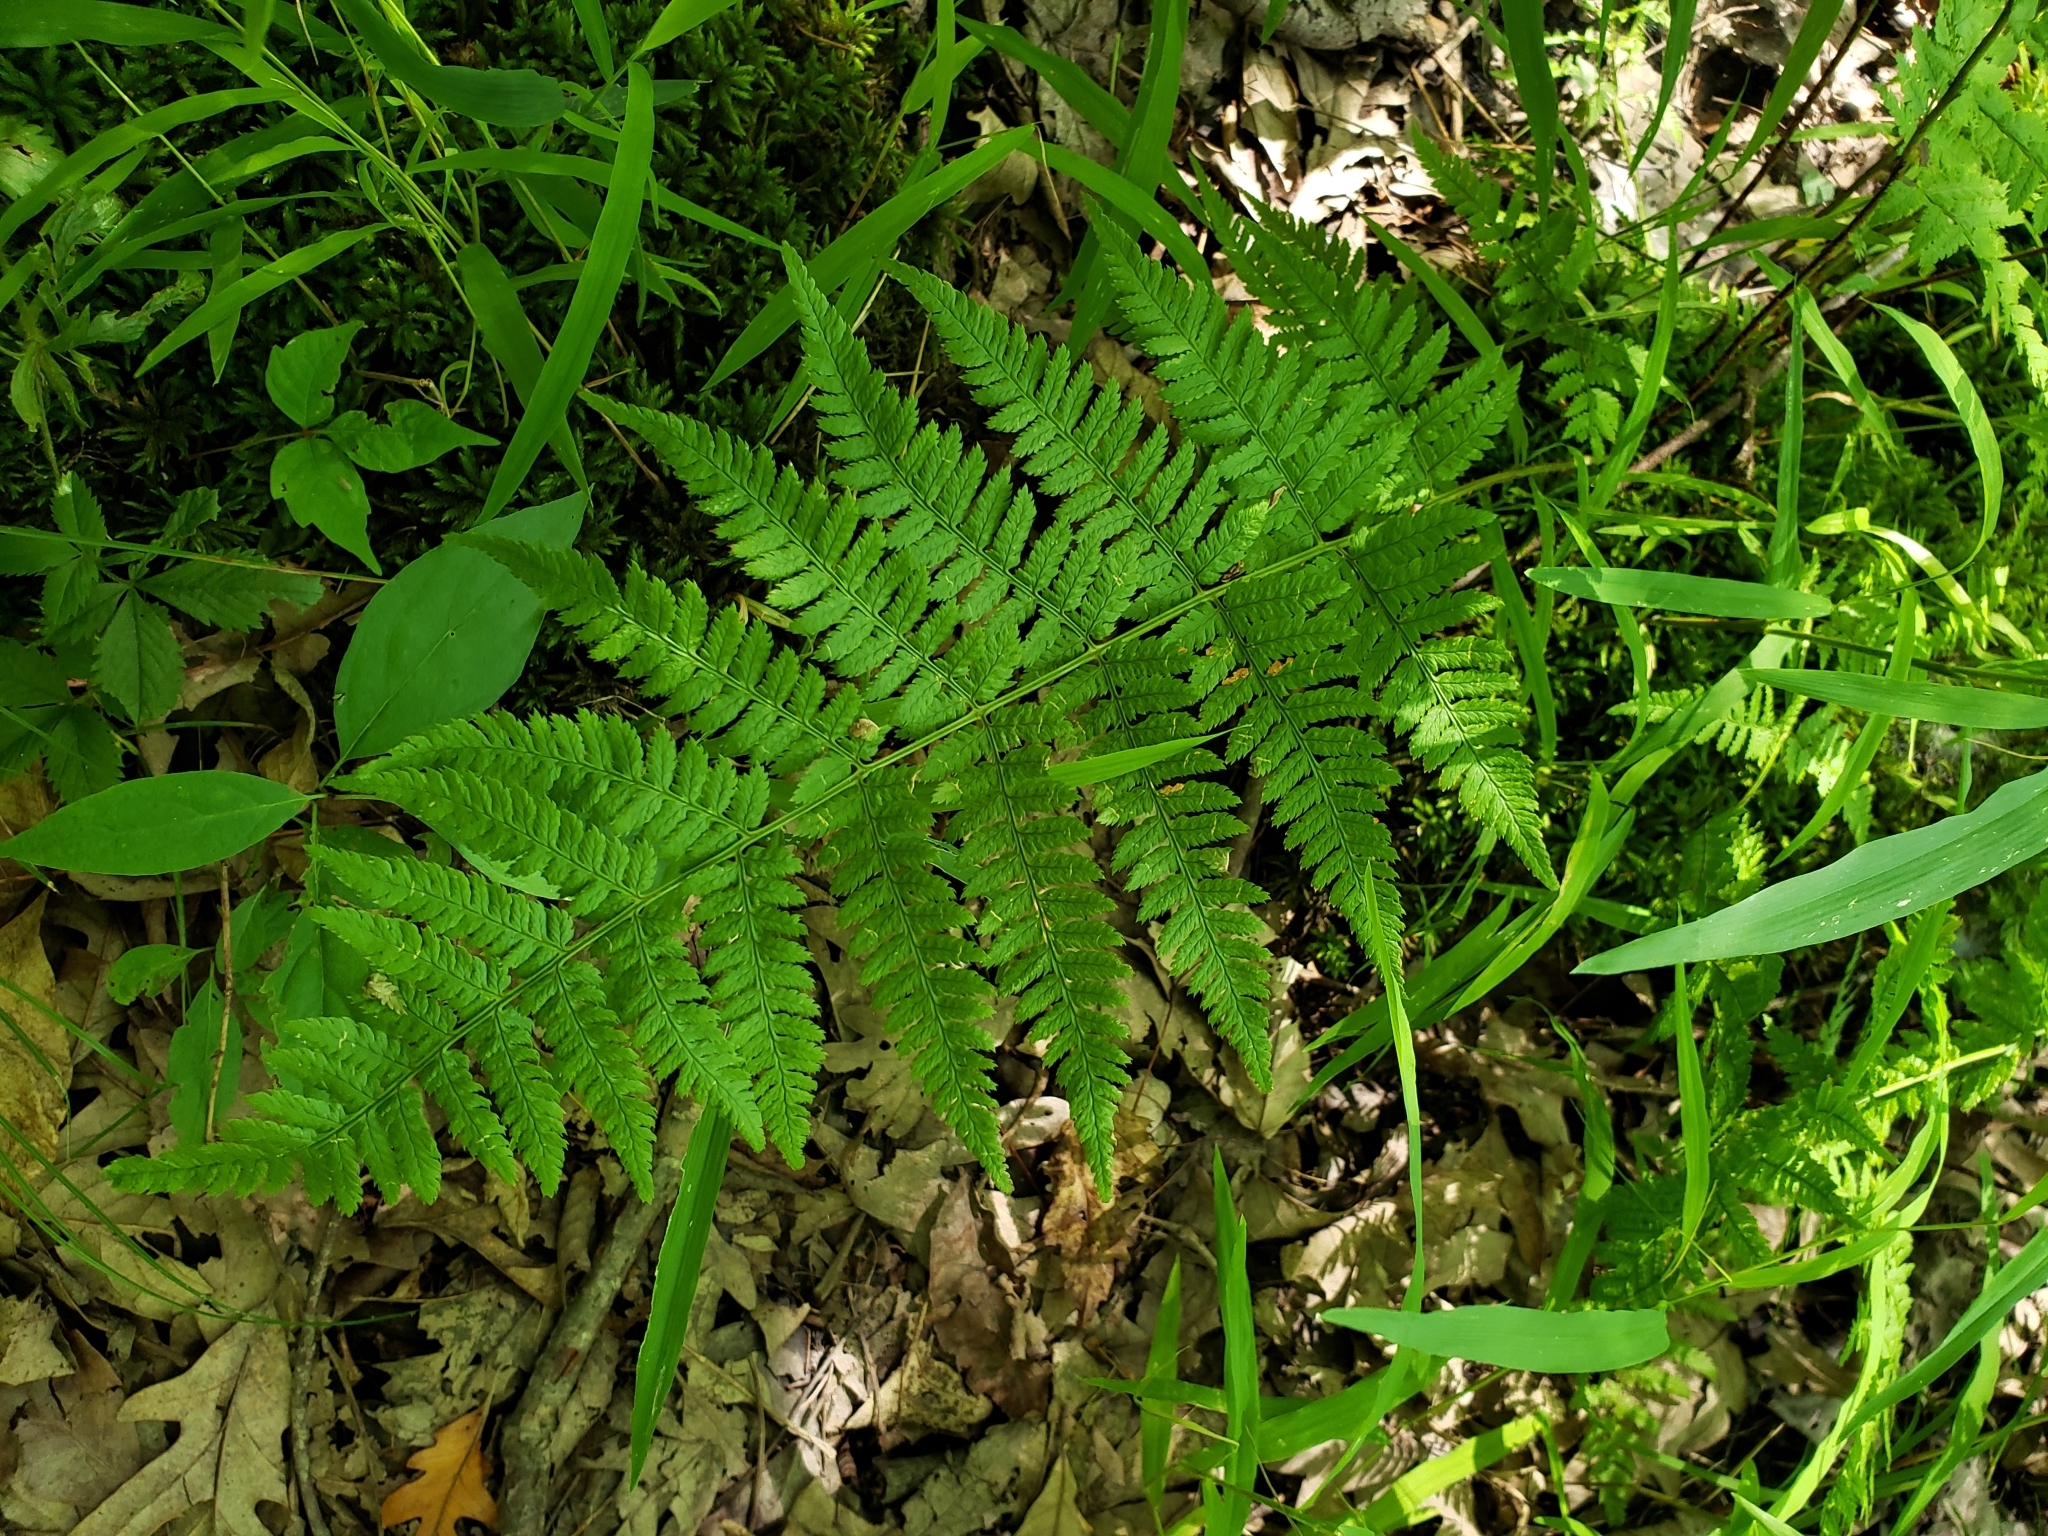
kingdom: Plantae
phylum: Tracheophyta
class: Polypodiopsida
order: Polypodiales
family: Dryopteridaceae
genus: Dryopteris
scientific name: Dryopteris carthusiana
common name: Narrow buckler-fern
